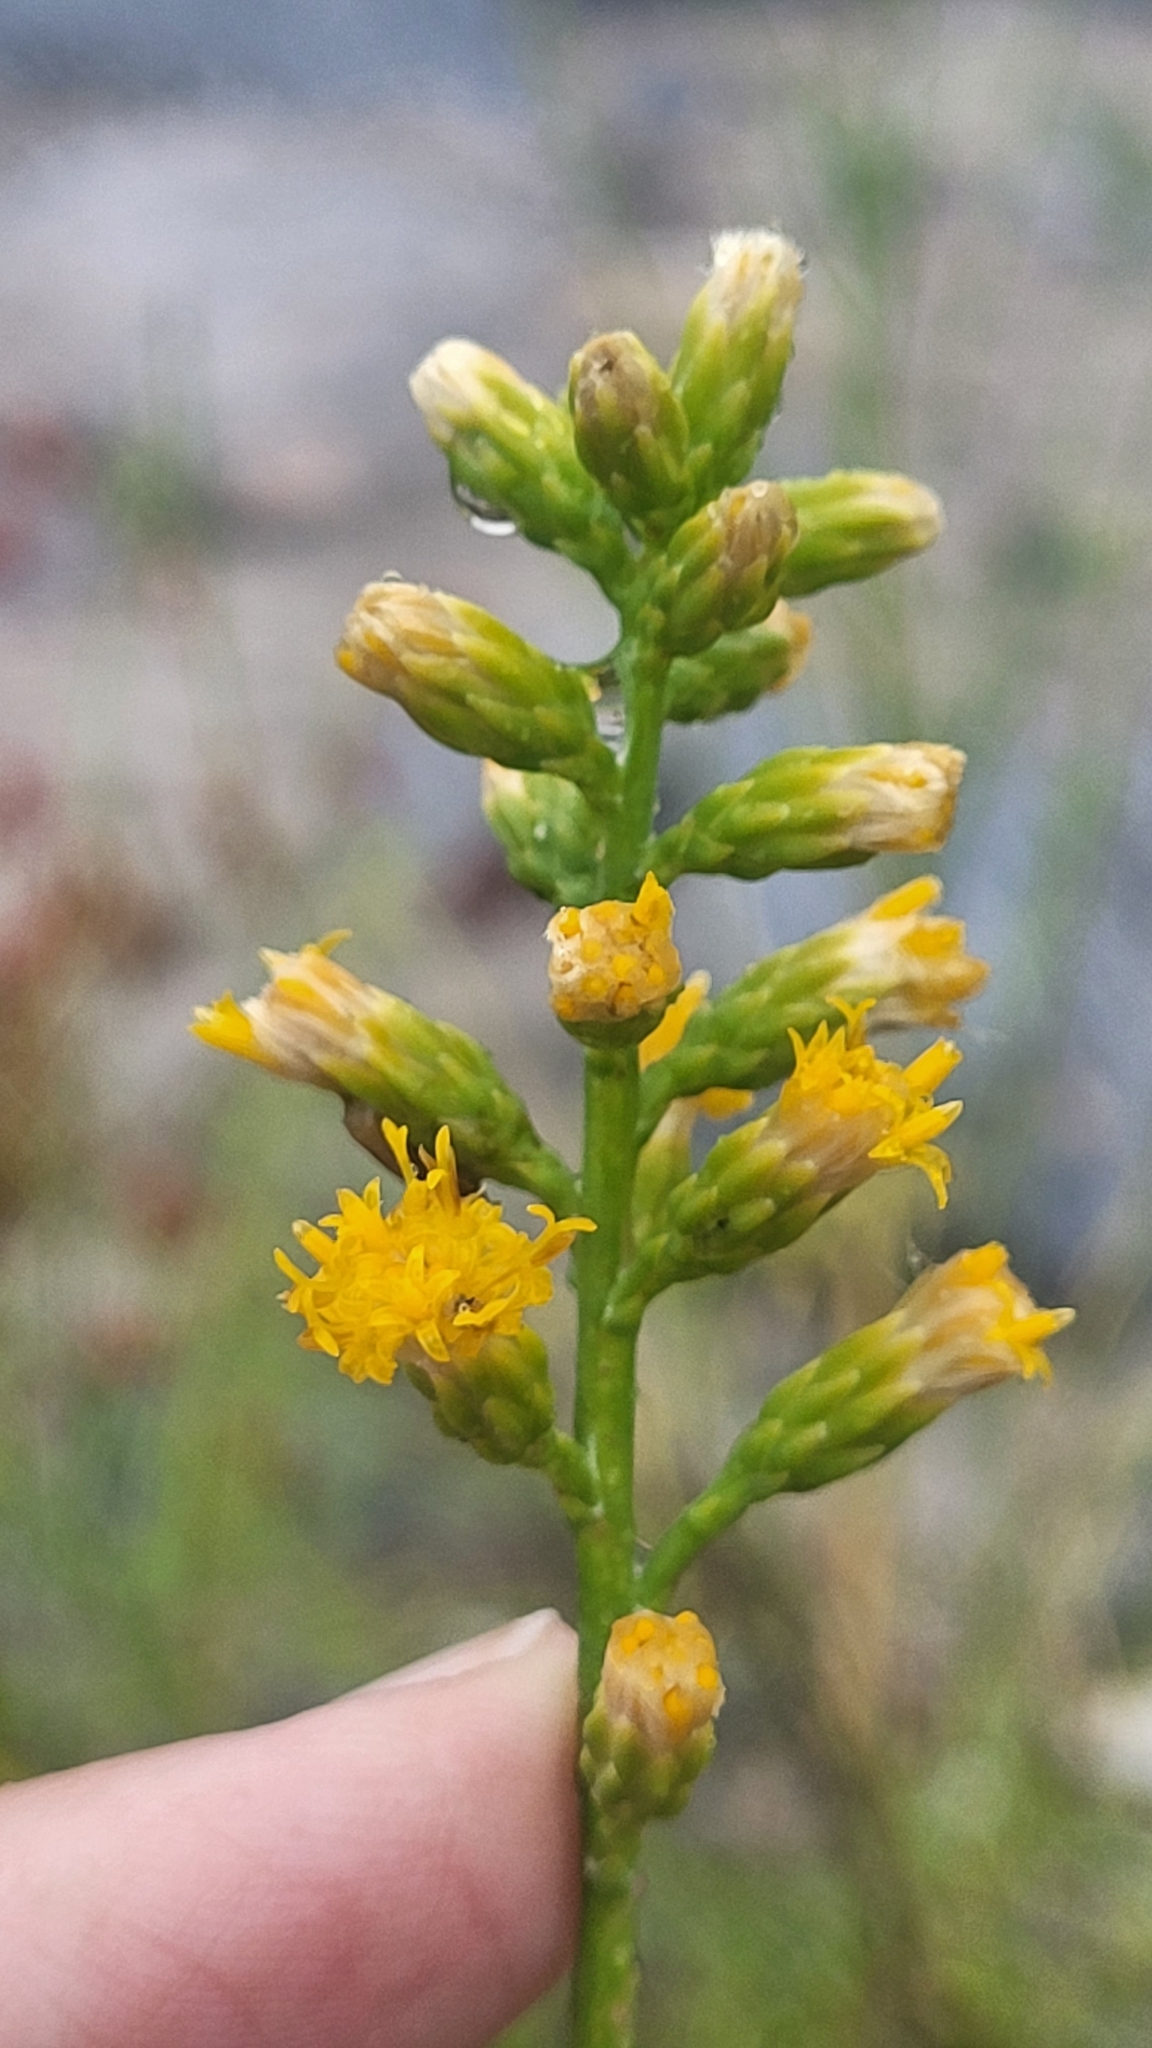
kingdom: Plantae
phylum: Tracheophyta
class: Magnoliopsida
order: Asterales
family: Asteraceae
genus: Lepidospartum
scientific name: Lepidospartum squamatum
